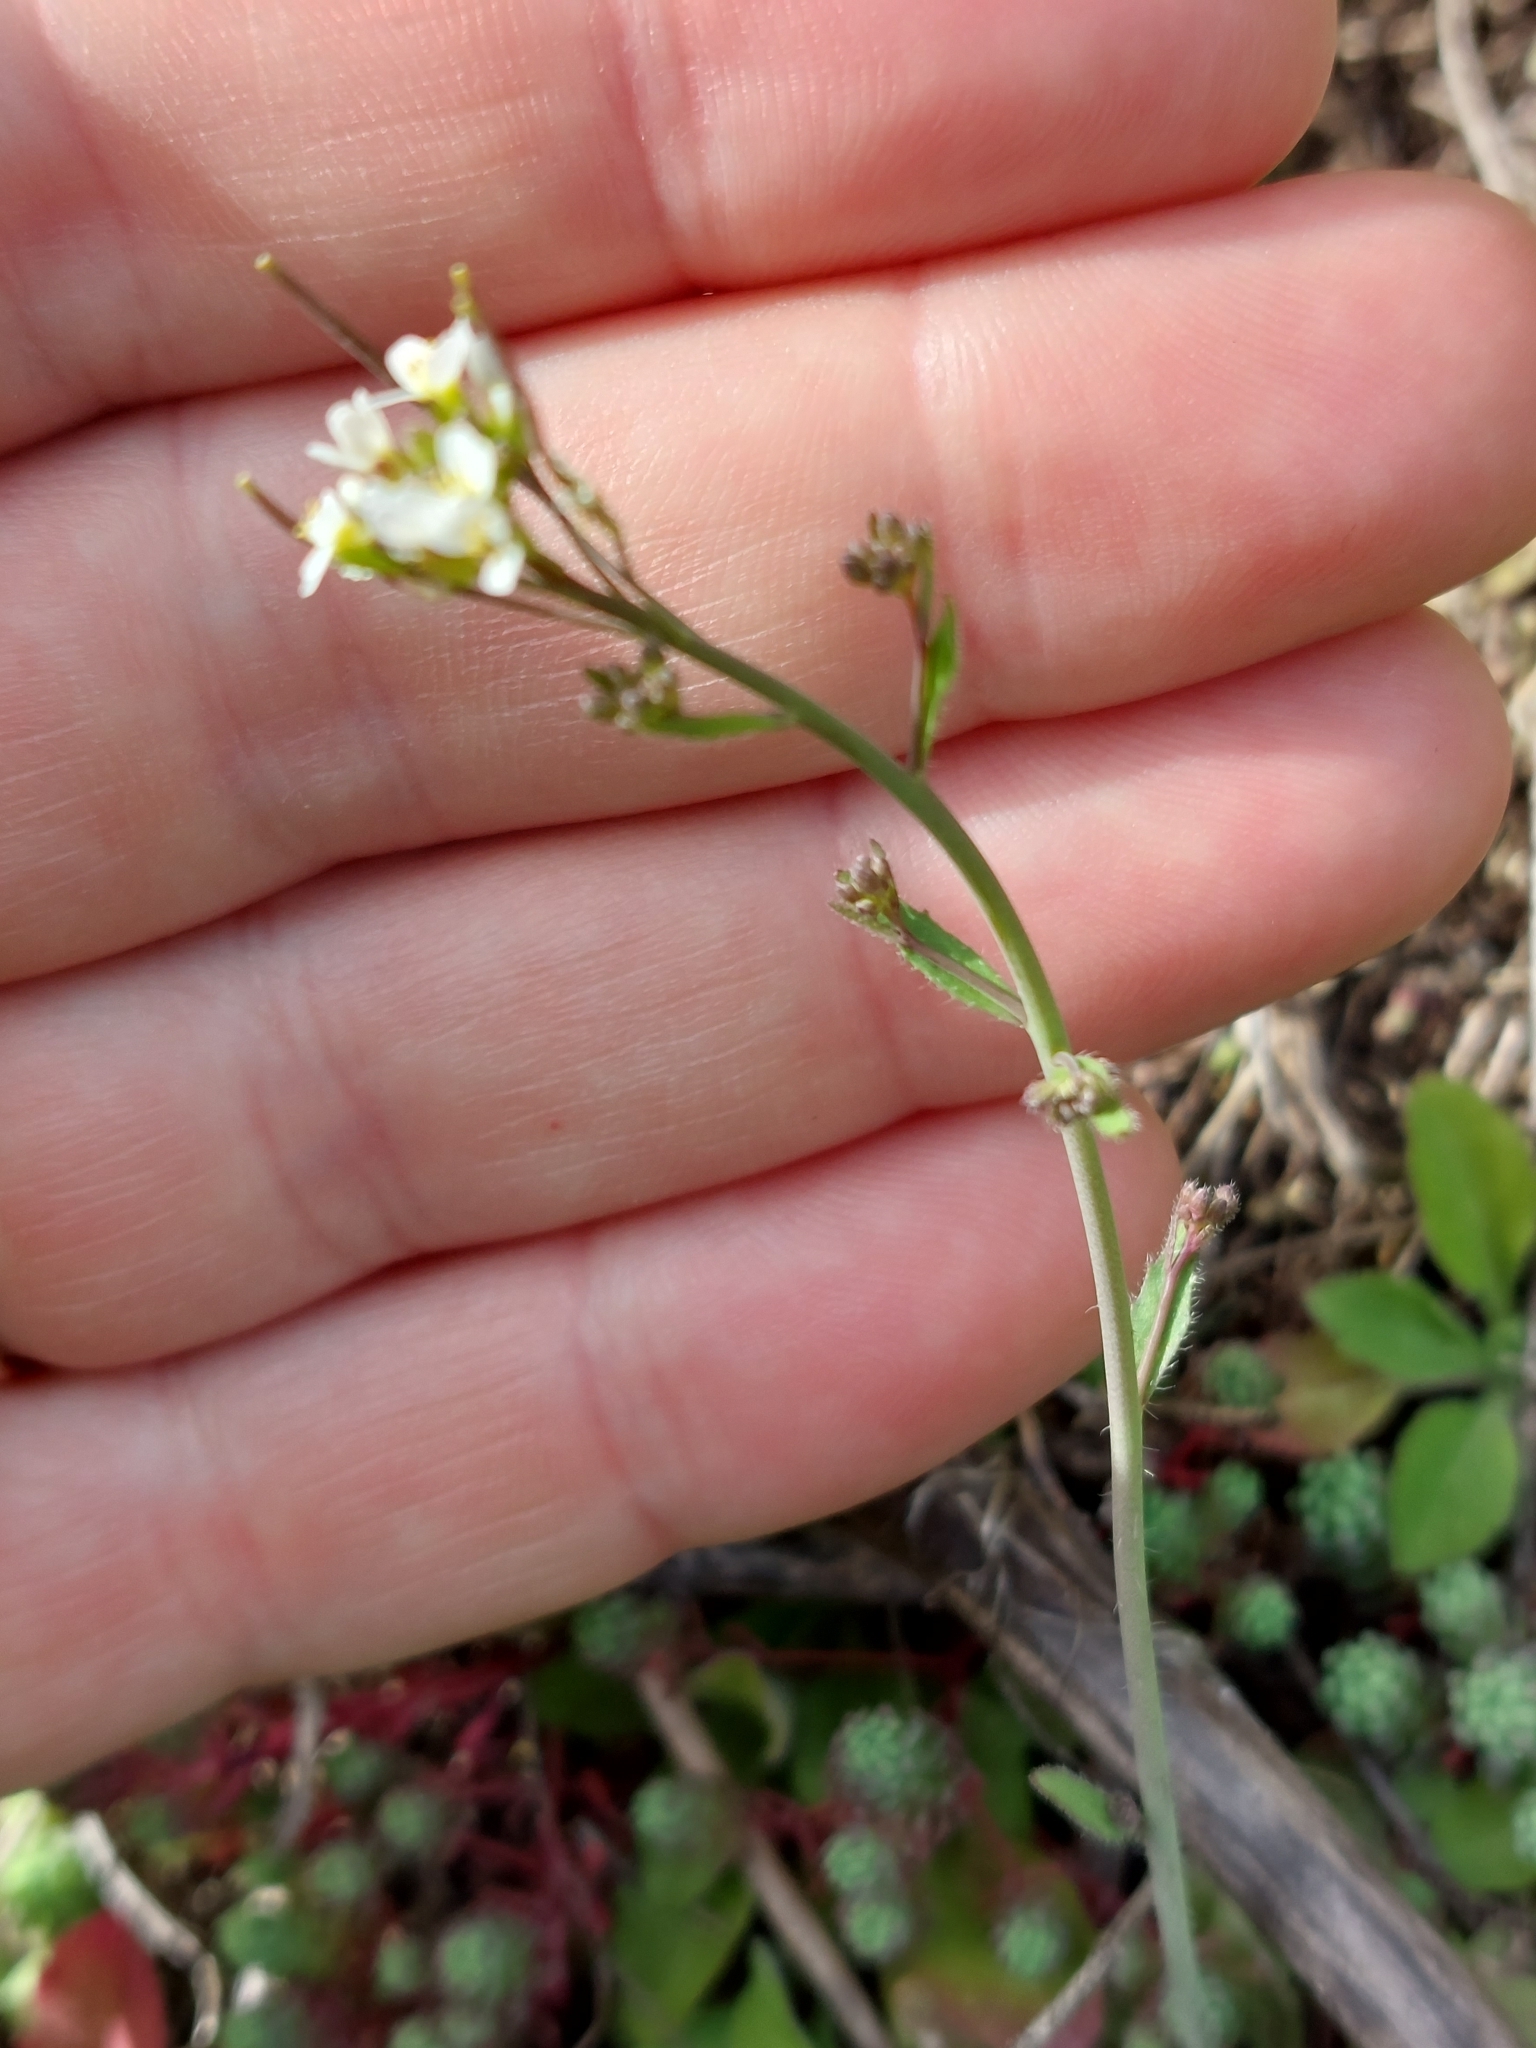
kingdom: Plantae
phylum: Tracheophyta
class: Magnoliopsida
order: Brassicales
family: Brassicaceae
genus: Arabidopsis
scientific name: Arabidopsis thaliana
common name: Thale cress
